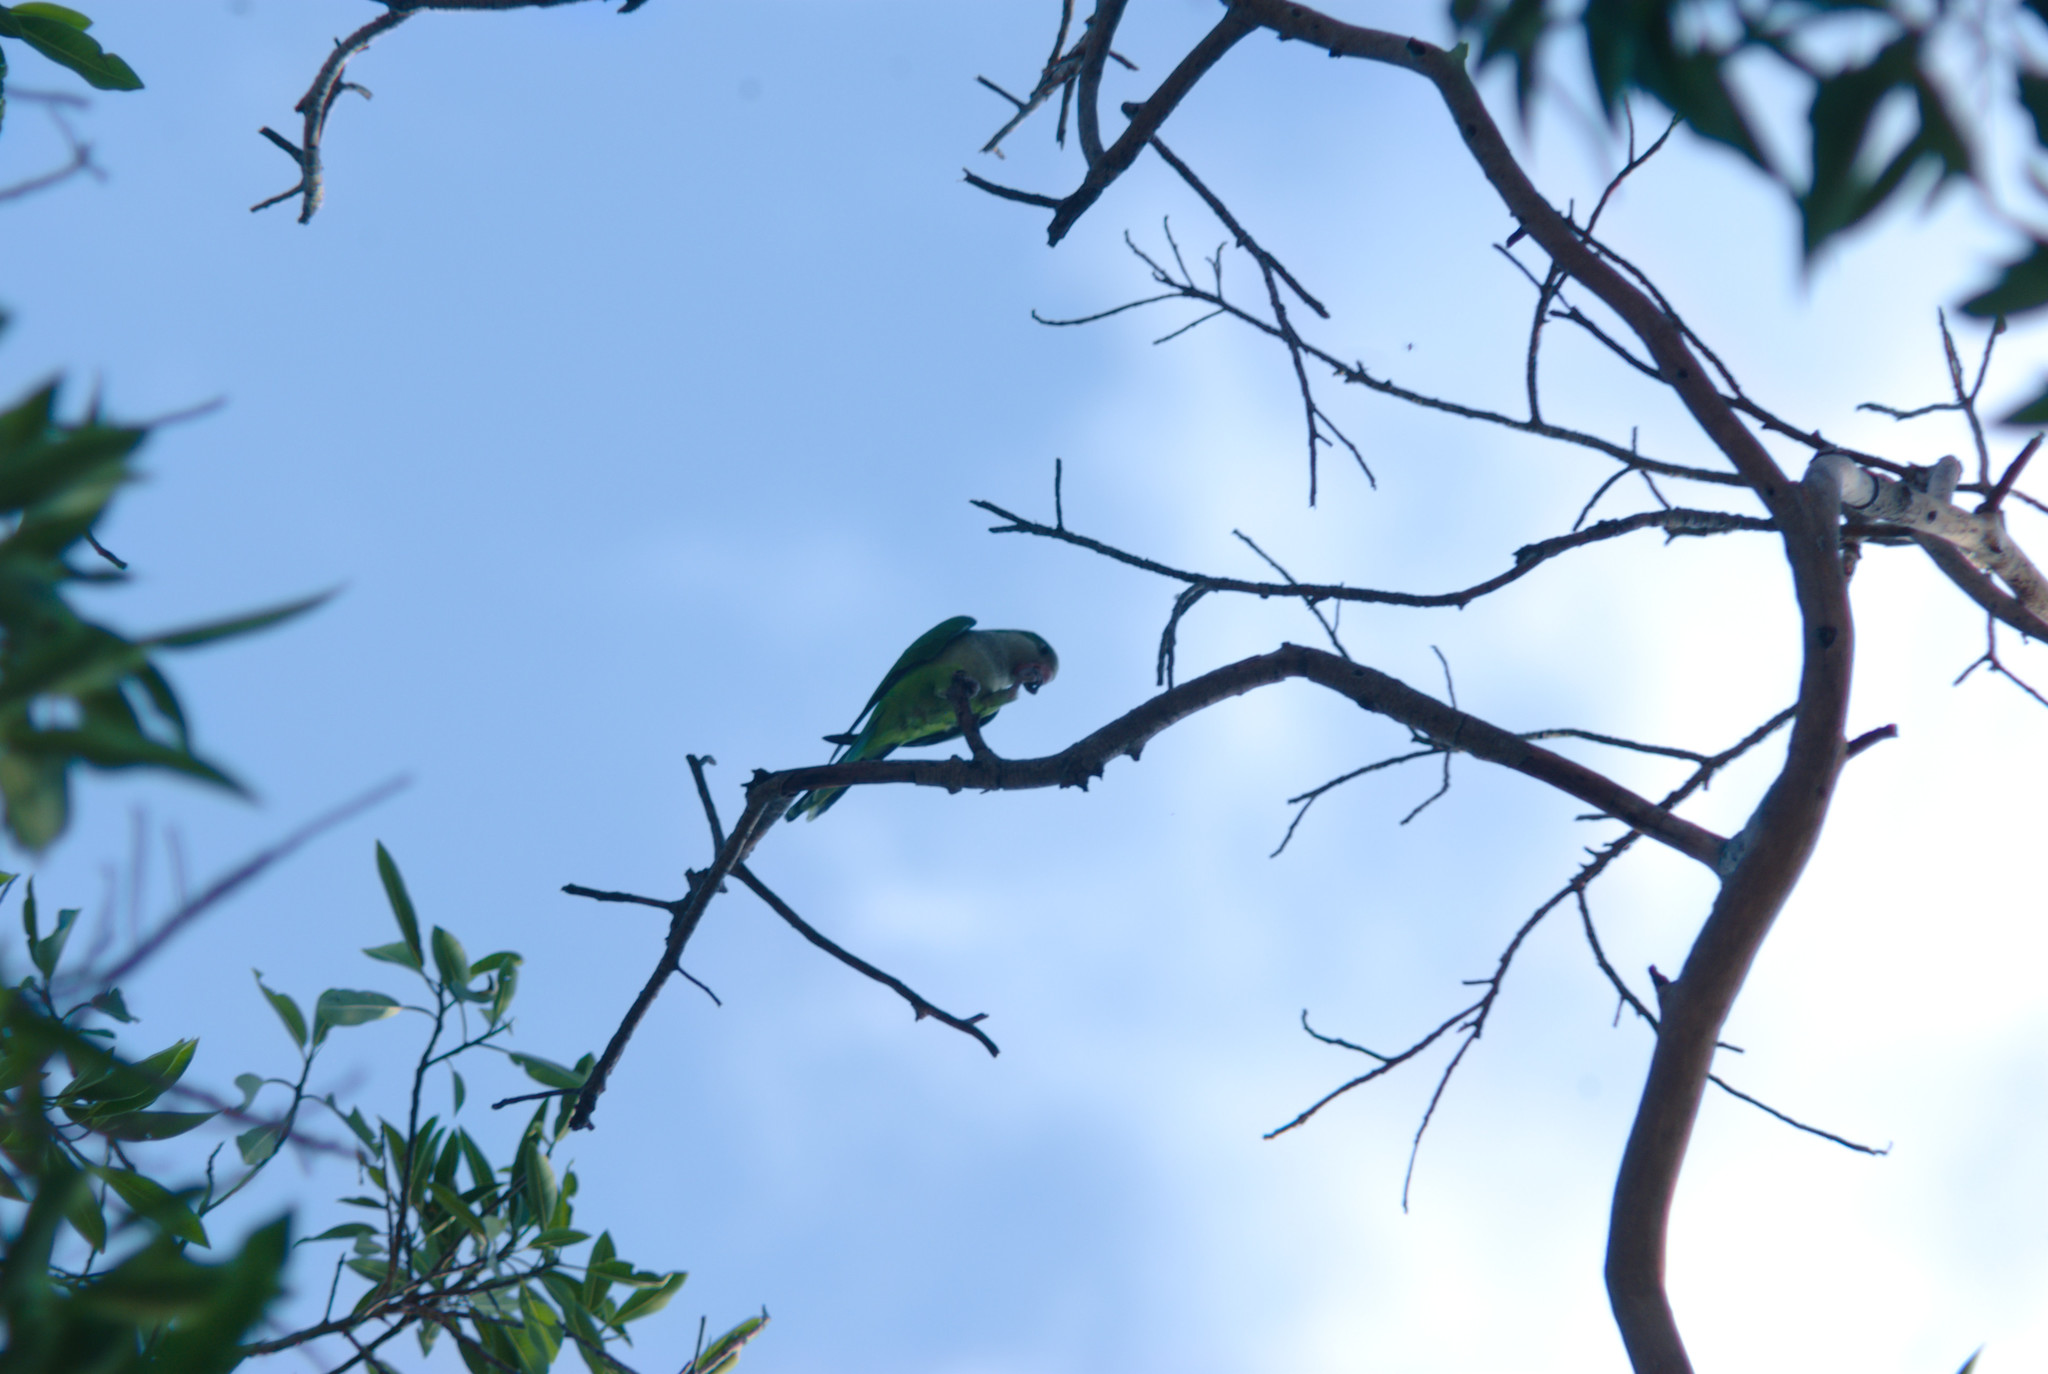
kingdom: Animalia
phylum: Chordata
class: Aves
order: Psittaciformes
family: Psittacidae
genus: Myiopsitta
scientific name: Myiopsitta monachus
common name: Monk parakeet
